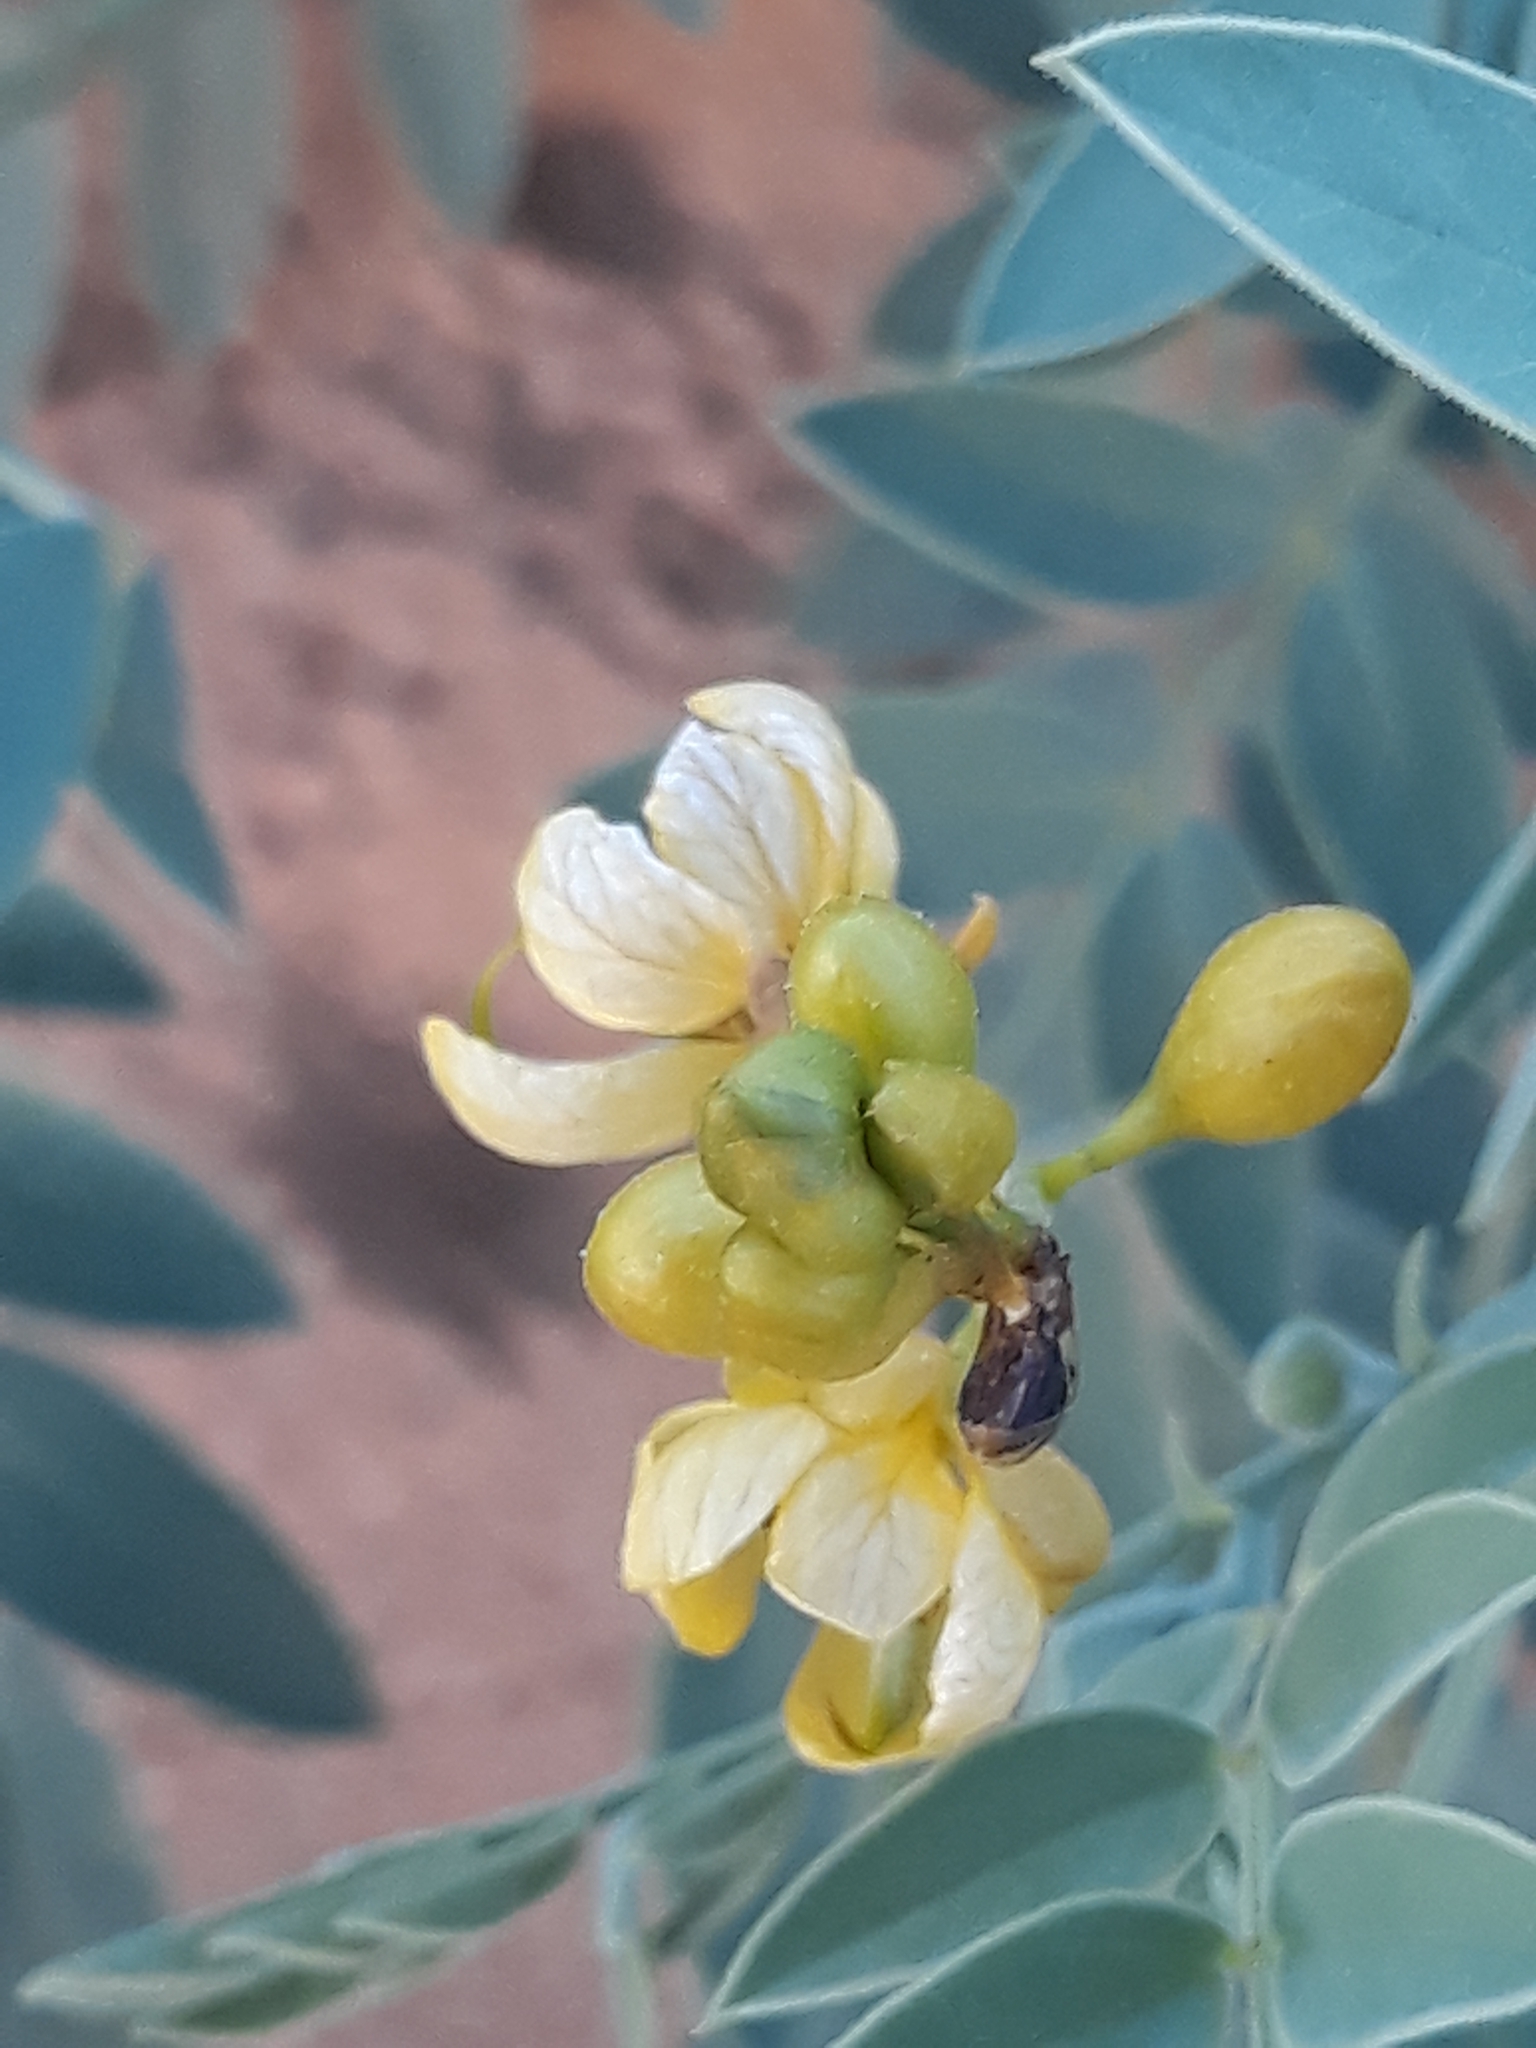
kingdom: Plantae
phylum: Tracheophyta
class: Magnoliopsida
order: Fabales
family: Fabaceae
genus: Senna
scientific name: Senna alexandrina
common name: True senna
